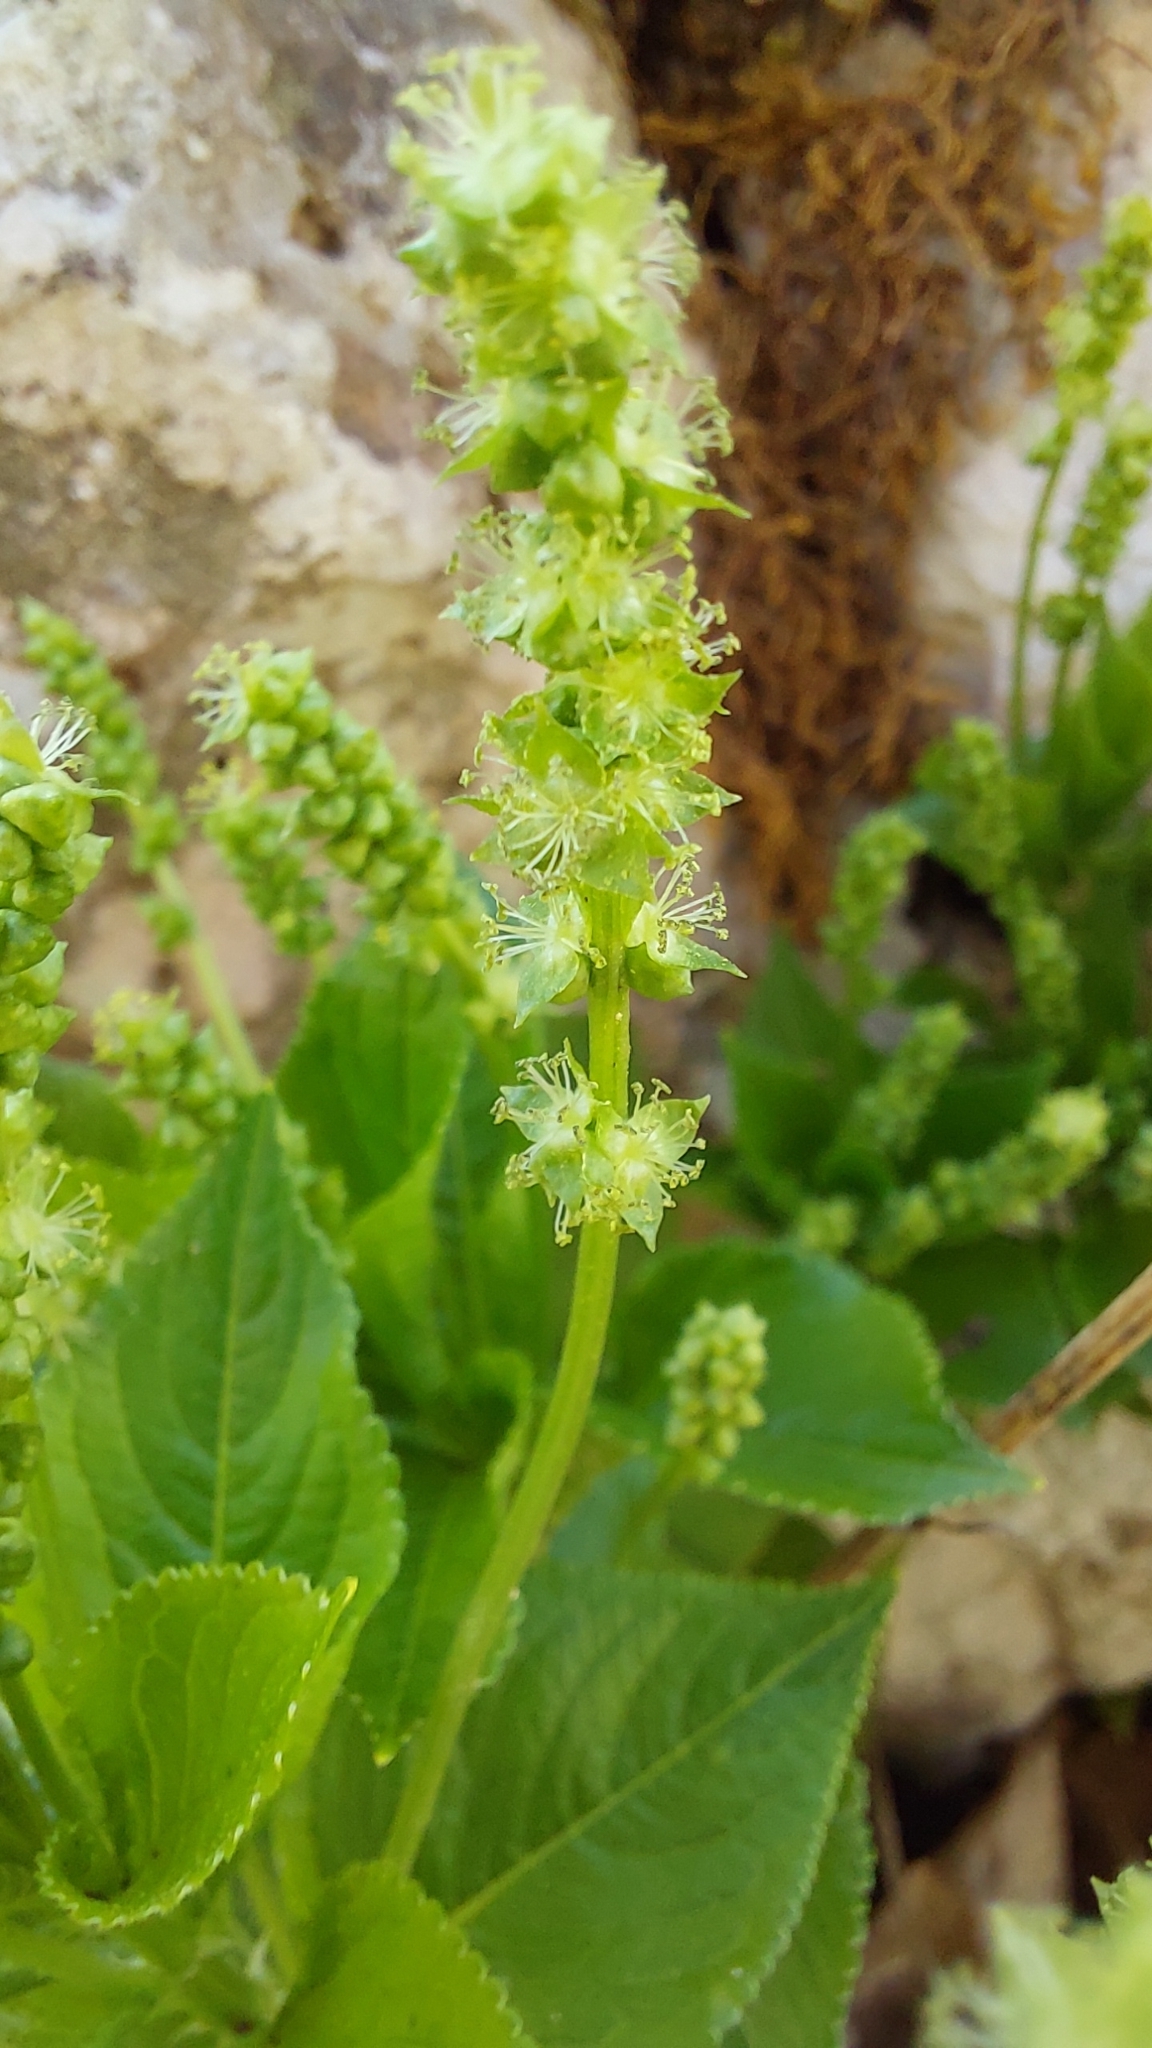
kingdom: Plantae
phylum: Tracheophyta
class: Magnoliopsida
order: Malpighiales
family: Euphorbiaceae
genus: Mercurialis
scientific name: Mercurialis perennis
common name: Dog mercury
